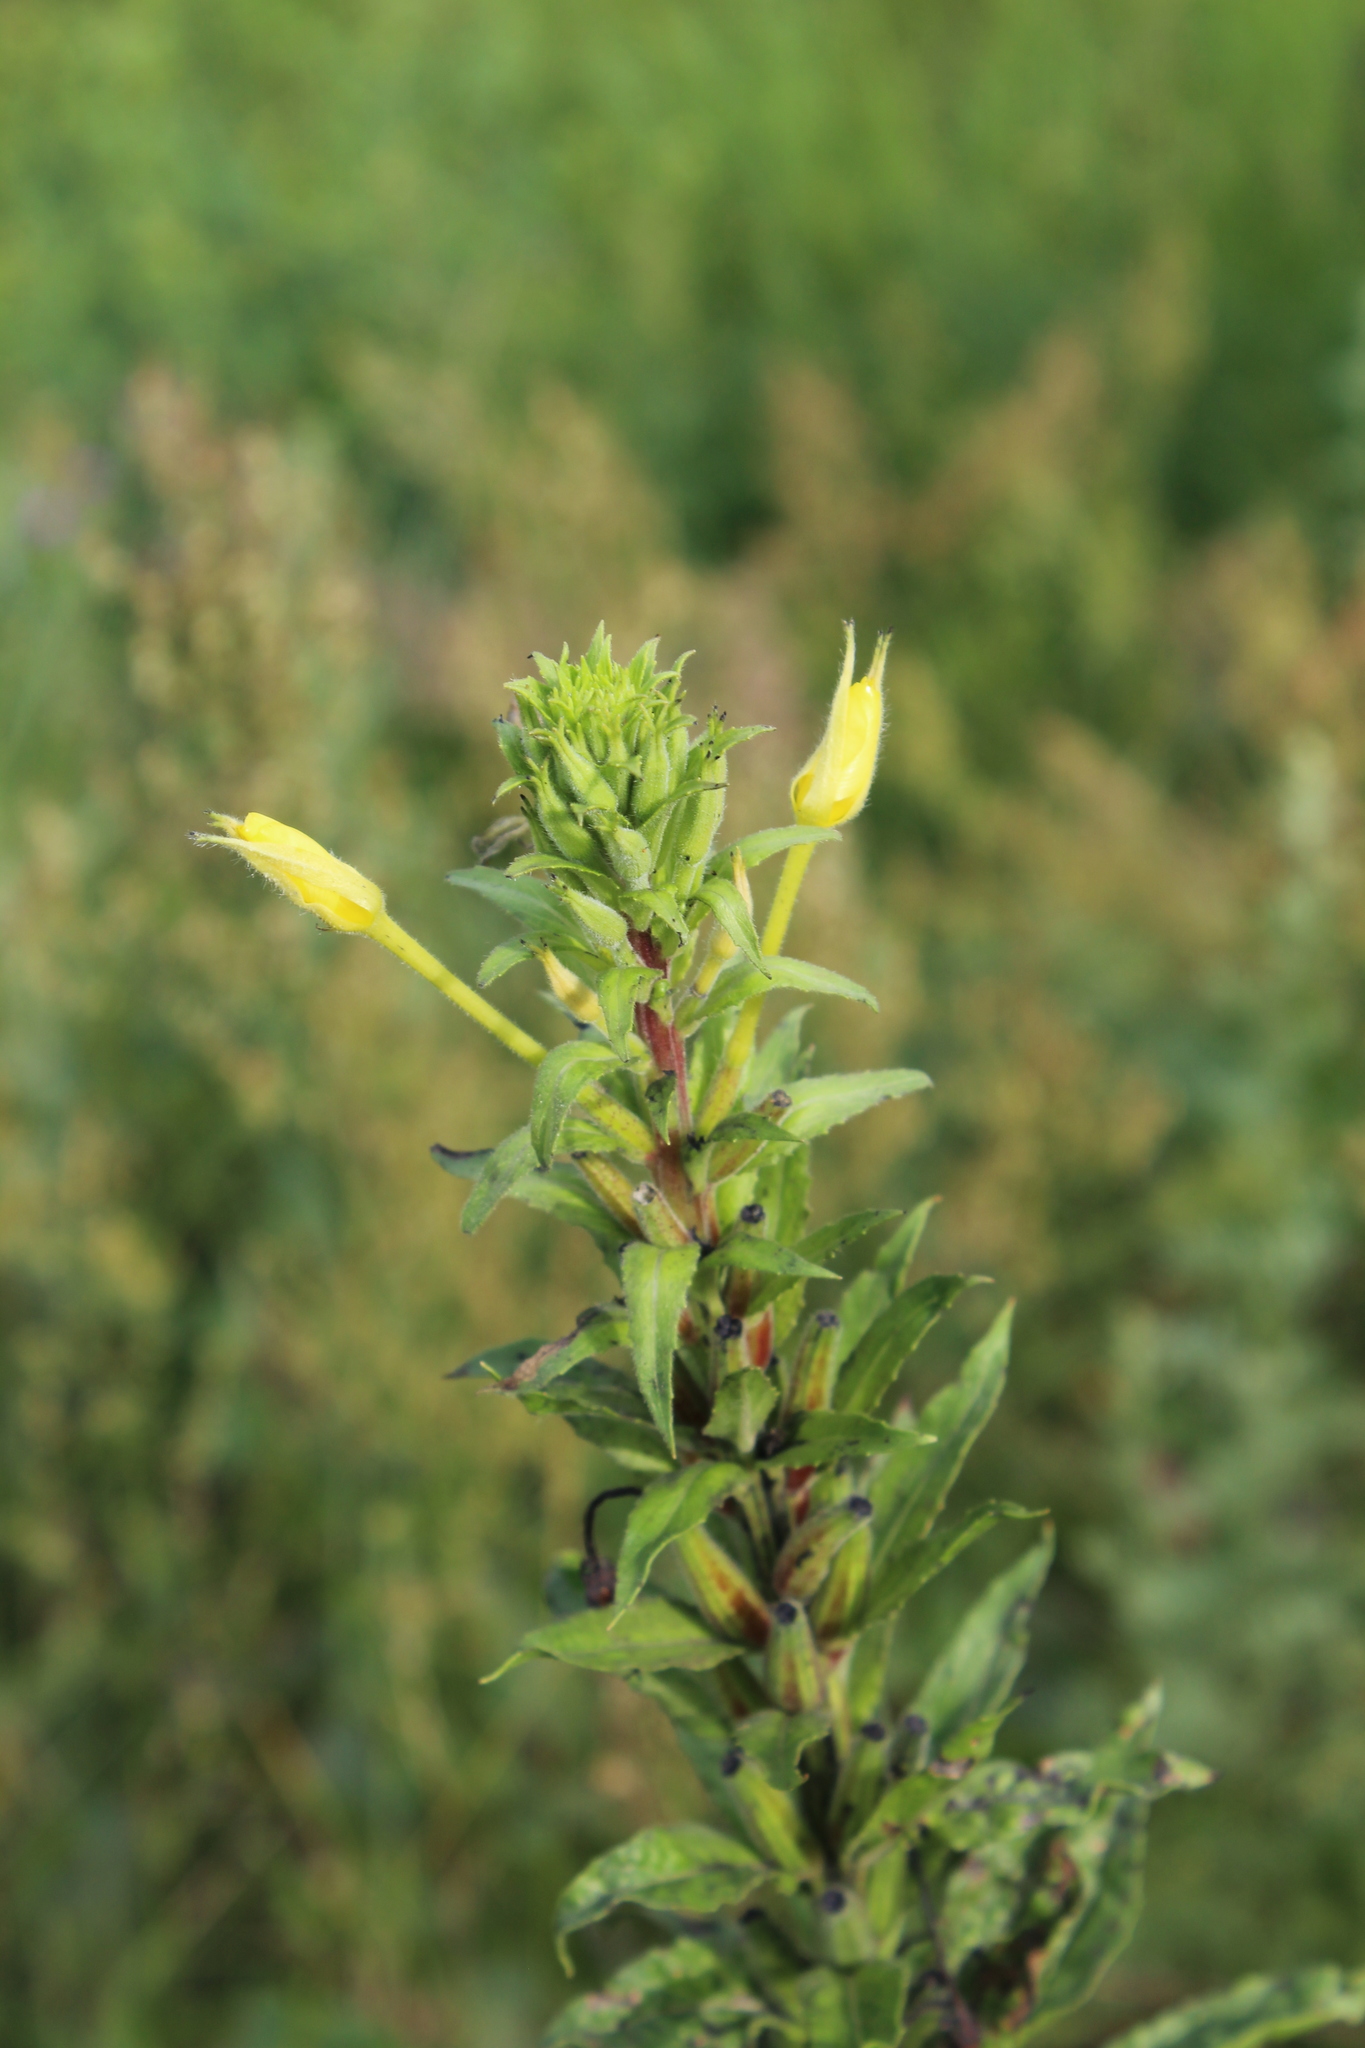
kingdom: Plantae
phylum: Tracheophyta
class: Magnoliopsida
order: Myrtales
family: Onagraceae
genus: Oenothera
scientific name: Oenothera rubricaulis
